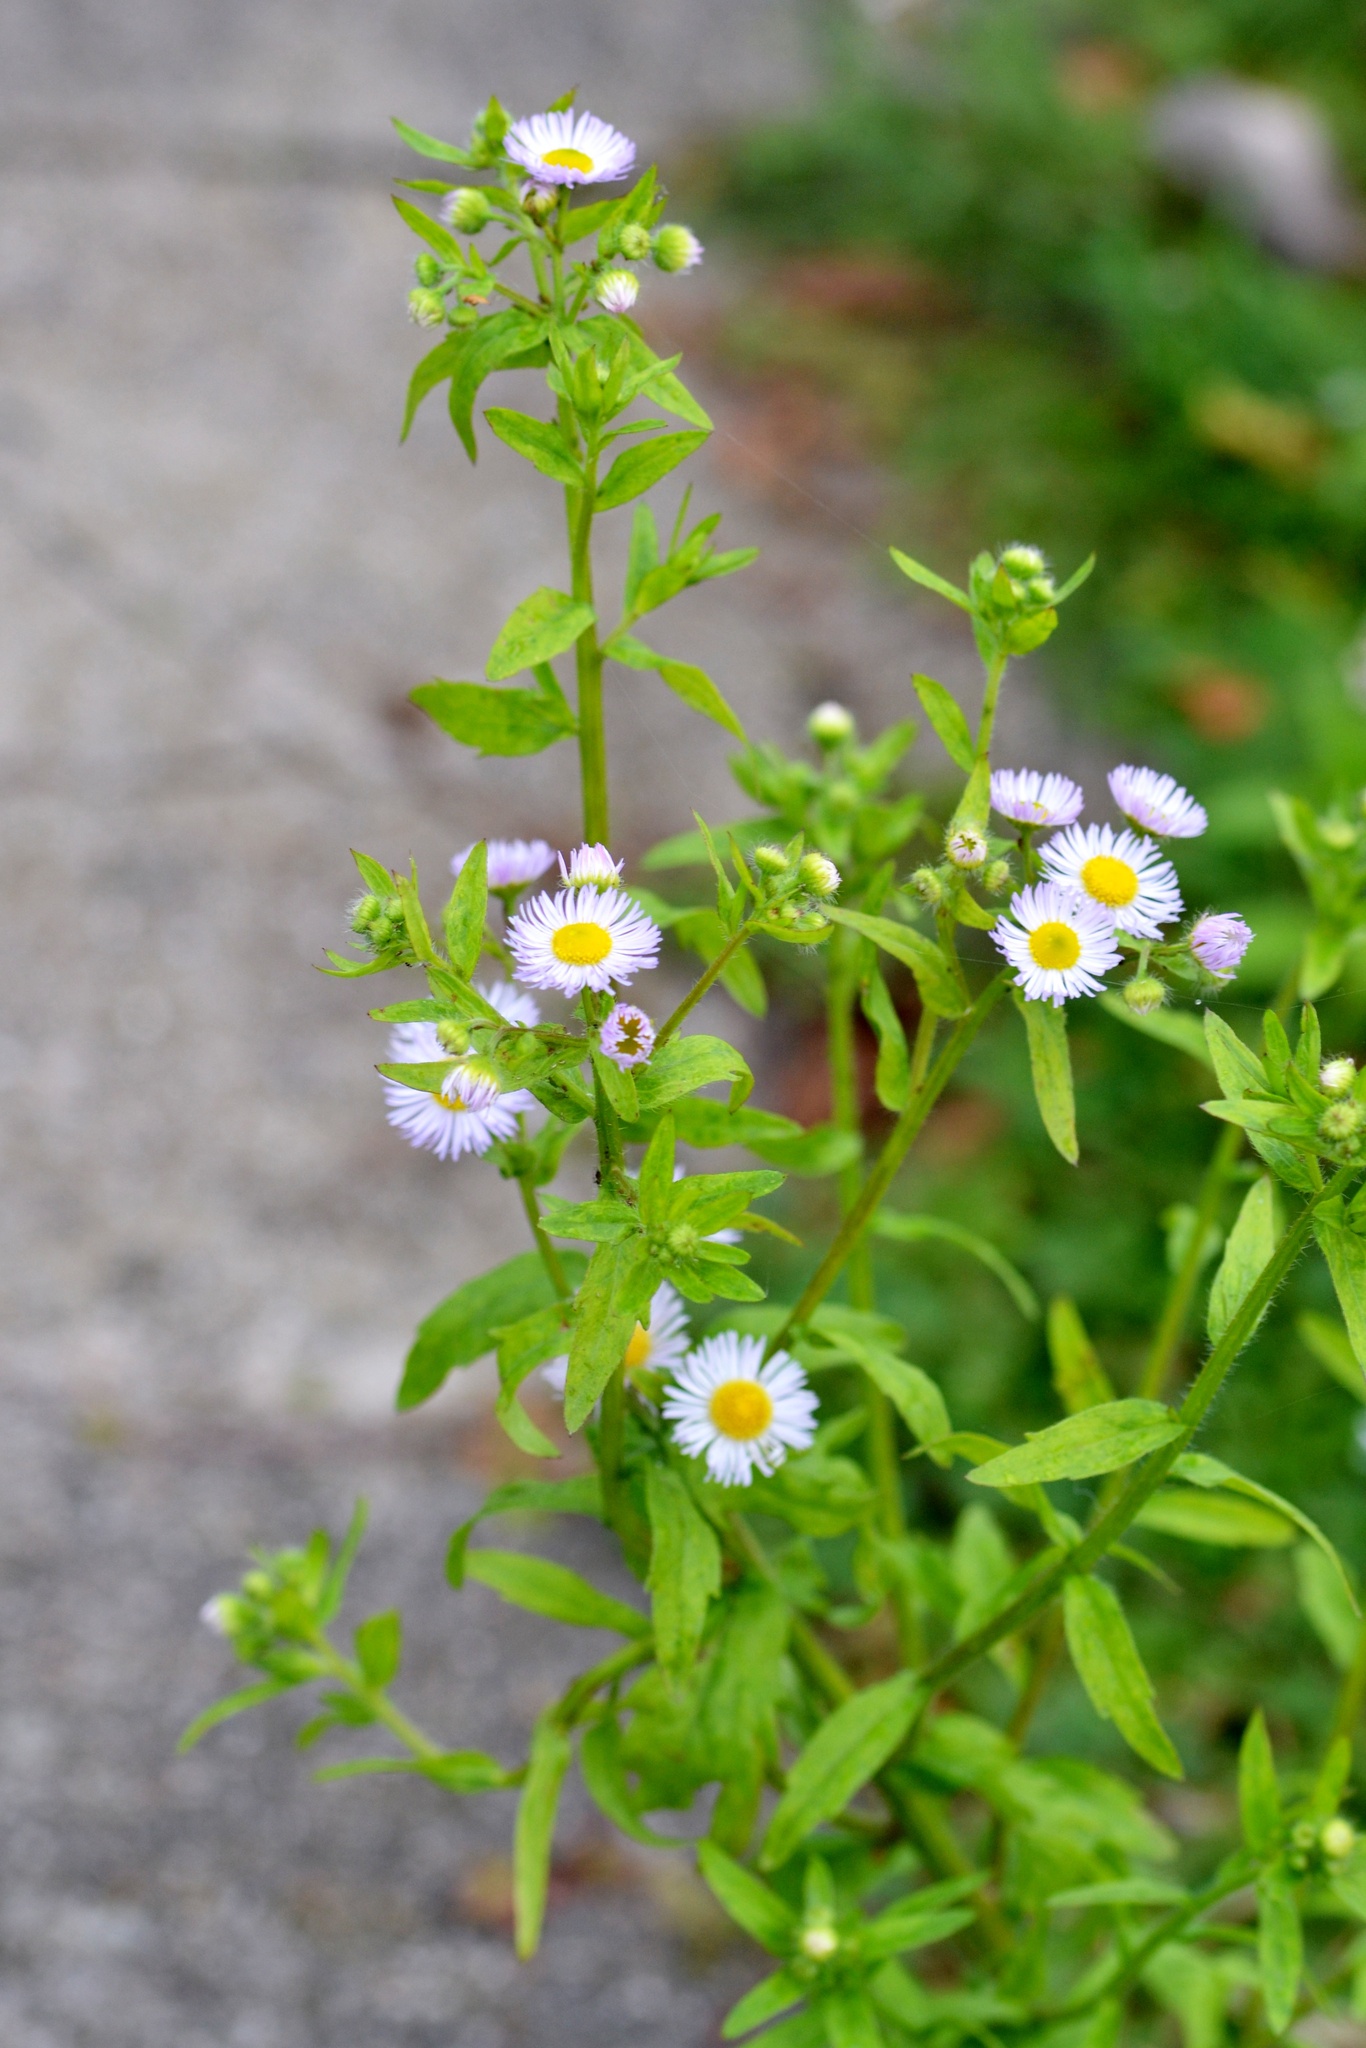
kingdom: Plantae
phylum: Tracheophyta
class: Magnoliopsida
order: Asterales
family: Asteraceae
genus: Erigeron
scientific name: Erigeron annuus
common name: Tall fleabane
